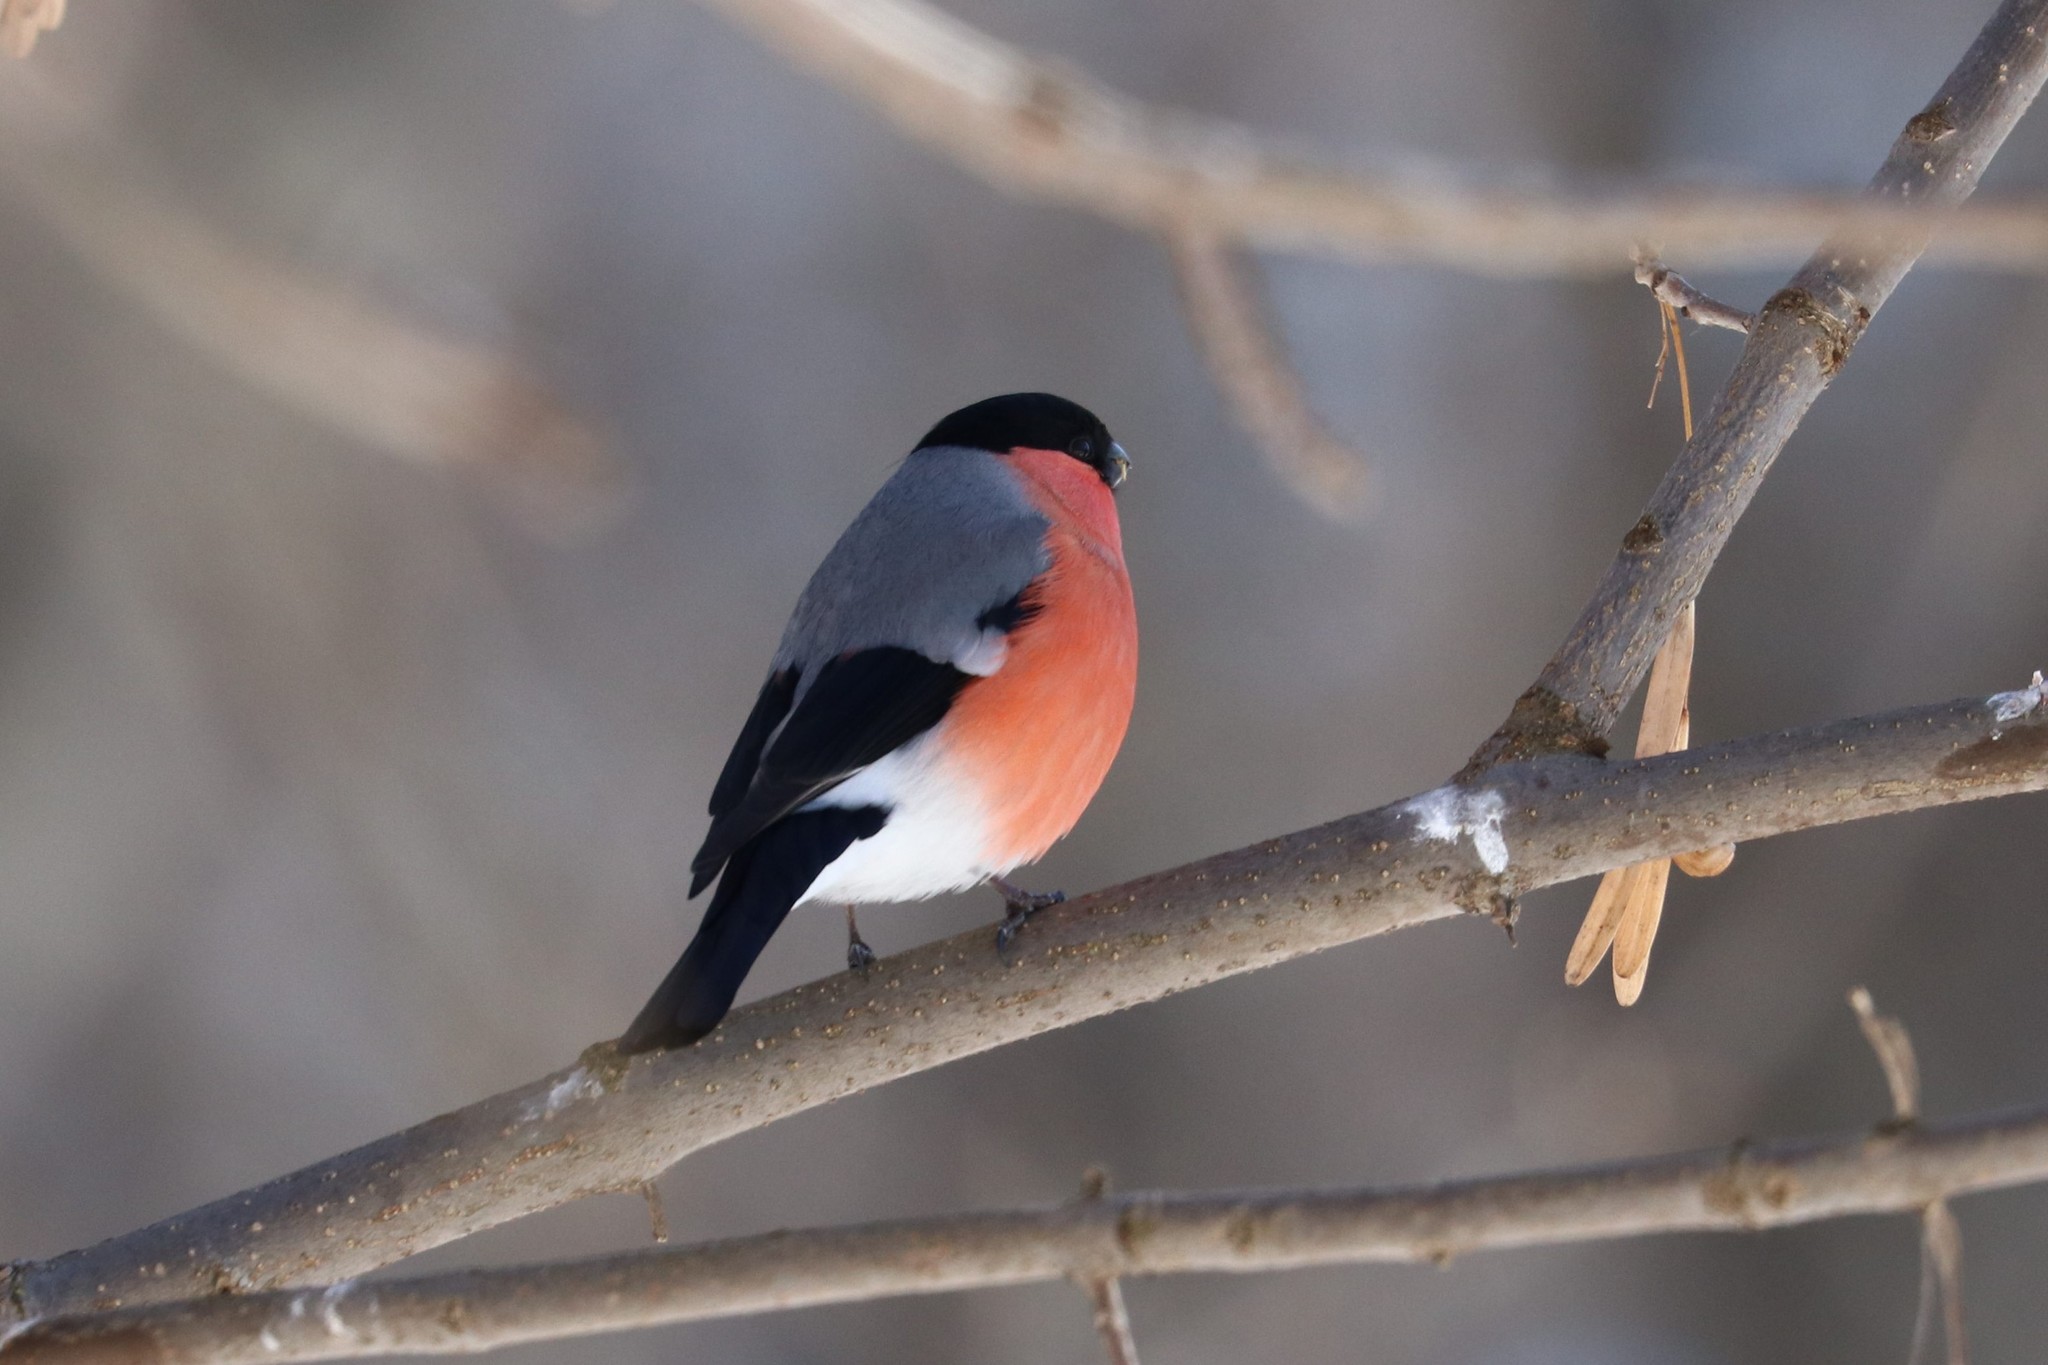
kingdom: Animalia
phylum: Chordata
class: Aves
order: Passeriformes
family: Fringillidae
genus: Pyrrhula
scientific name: Pyrrhula pyrrhula
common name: Eurasian bullfinch
